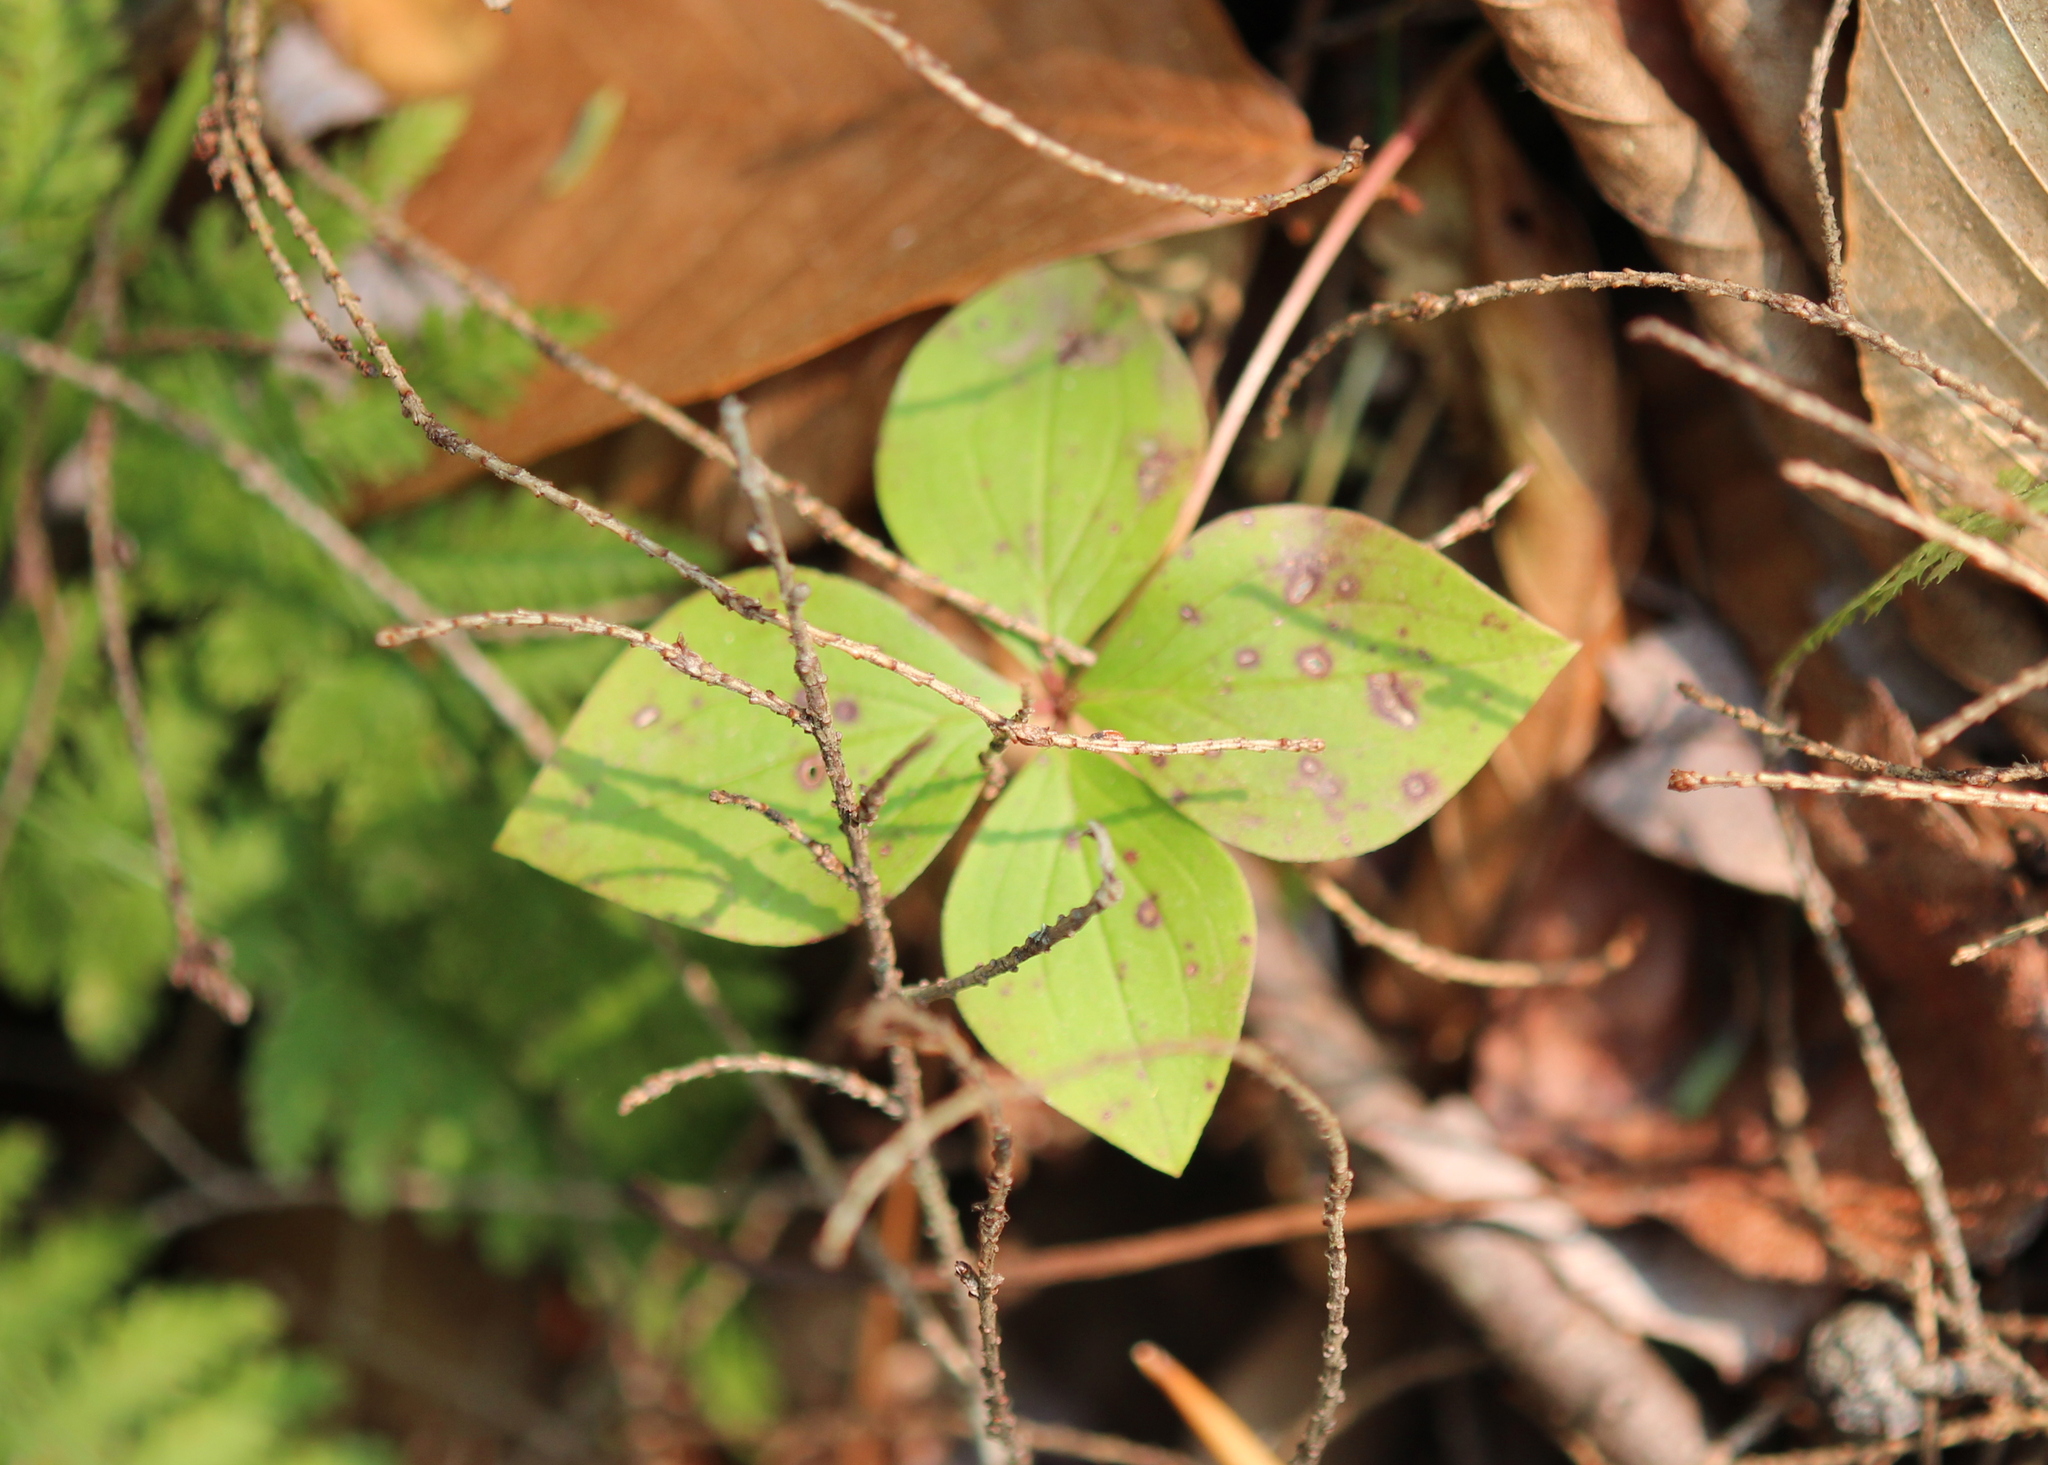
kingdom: Plantae
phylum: Tracheophyta
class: Magnoliopsida
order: Cornales
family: Cornaceae
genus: Cornus
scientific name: Cornus canadensis
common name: Creeping dogwood
